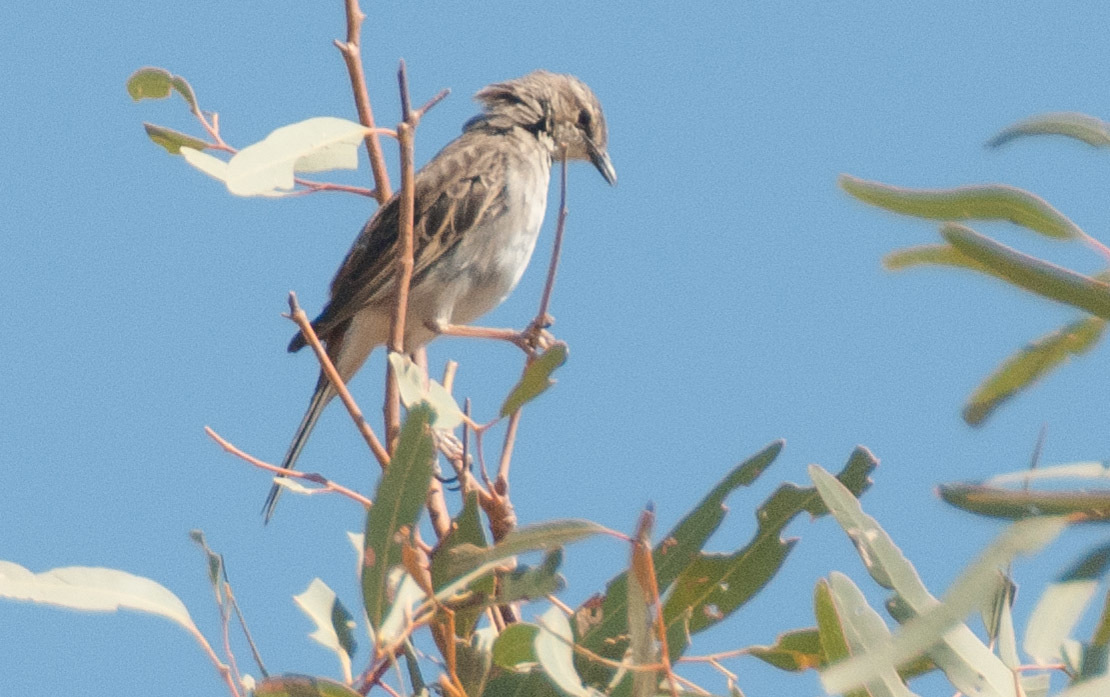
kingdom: Animalia
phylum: Chordata
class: Aves
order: Passeriformes
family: Campephagidae
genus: Lalage
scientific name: Lalage tricolor
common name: White-winged triller
